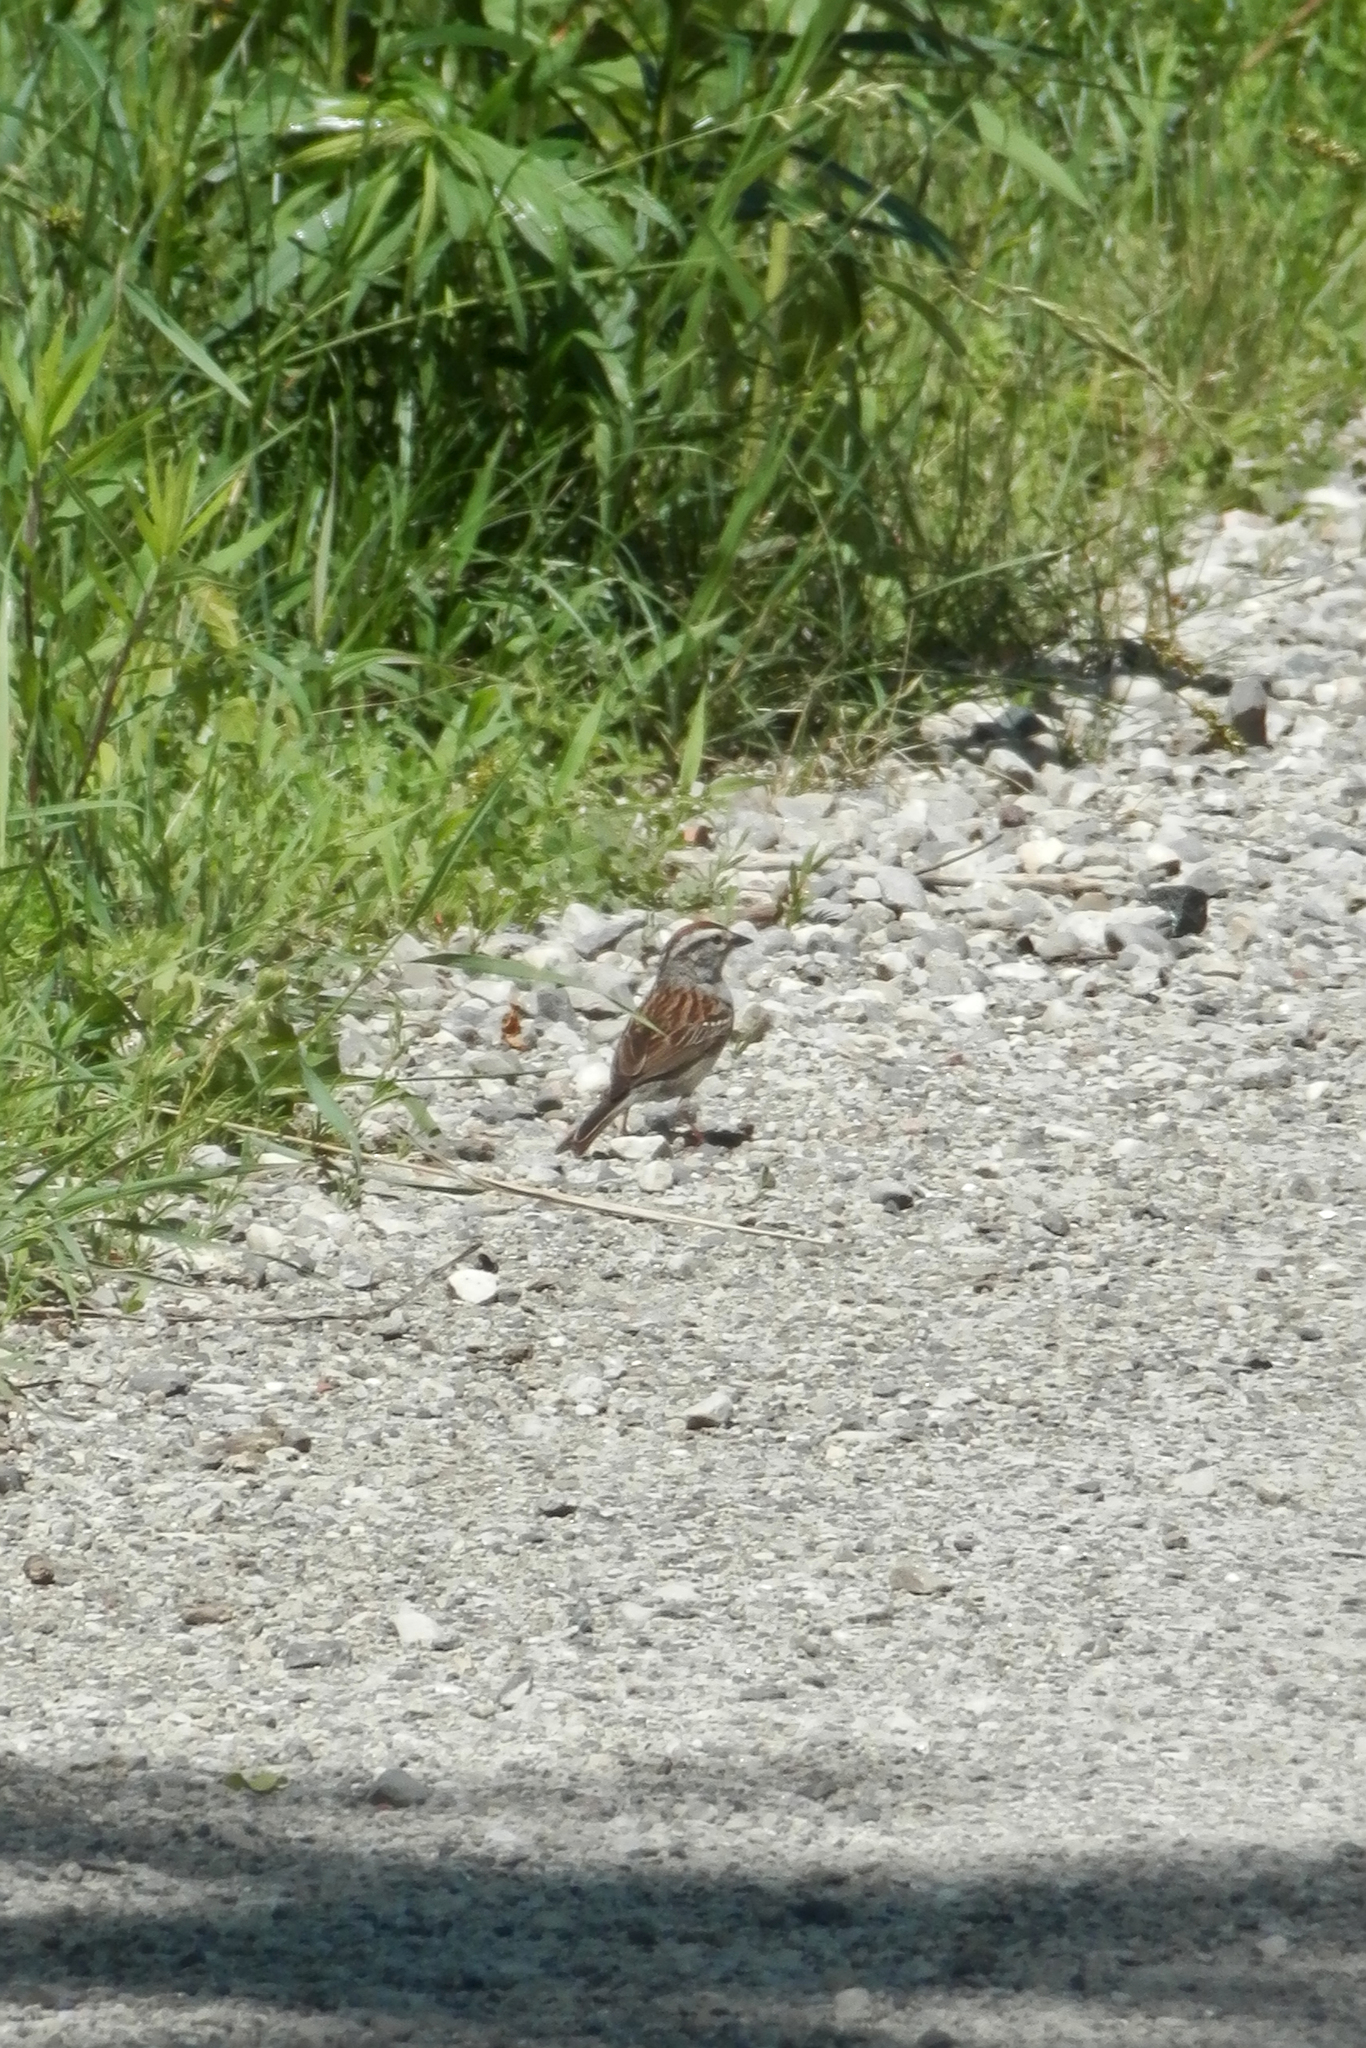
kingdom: Animalia
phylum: Chordata
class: Aves
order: Passeriformes
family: Passerellidae
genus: Spizella
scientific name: Spizella passerina
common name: Chipping sparrow
